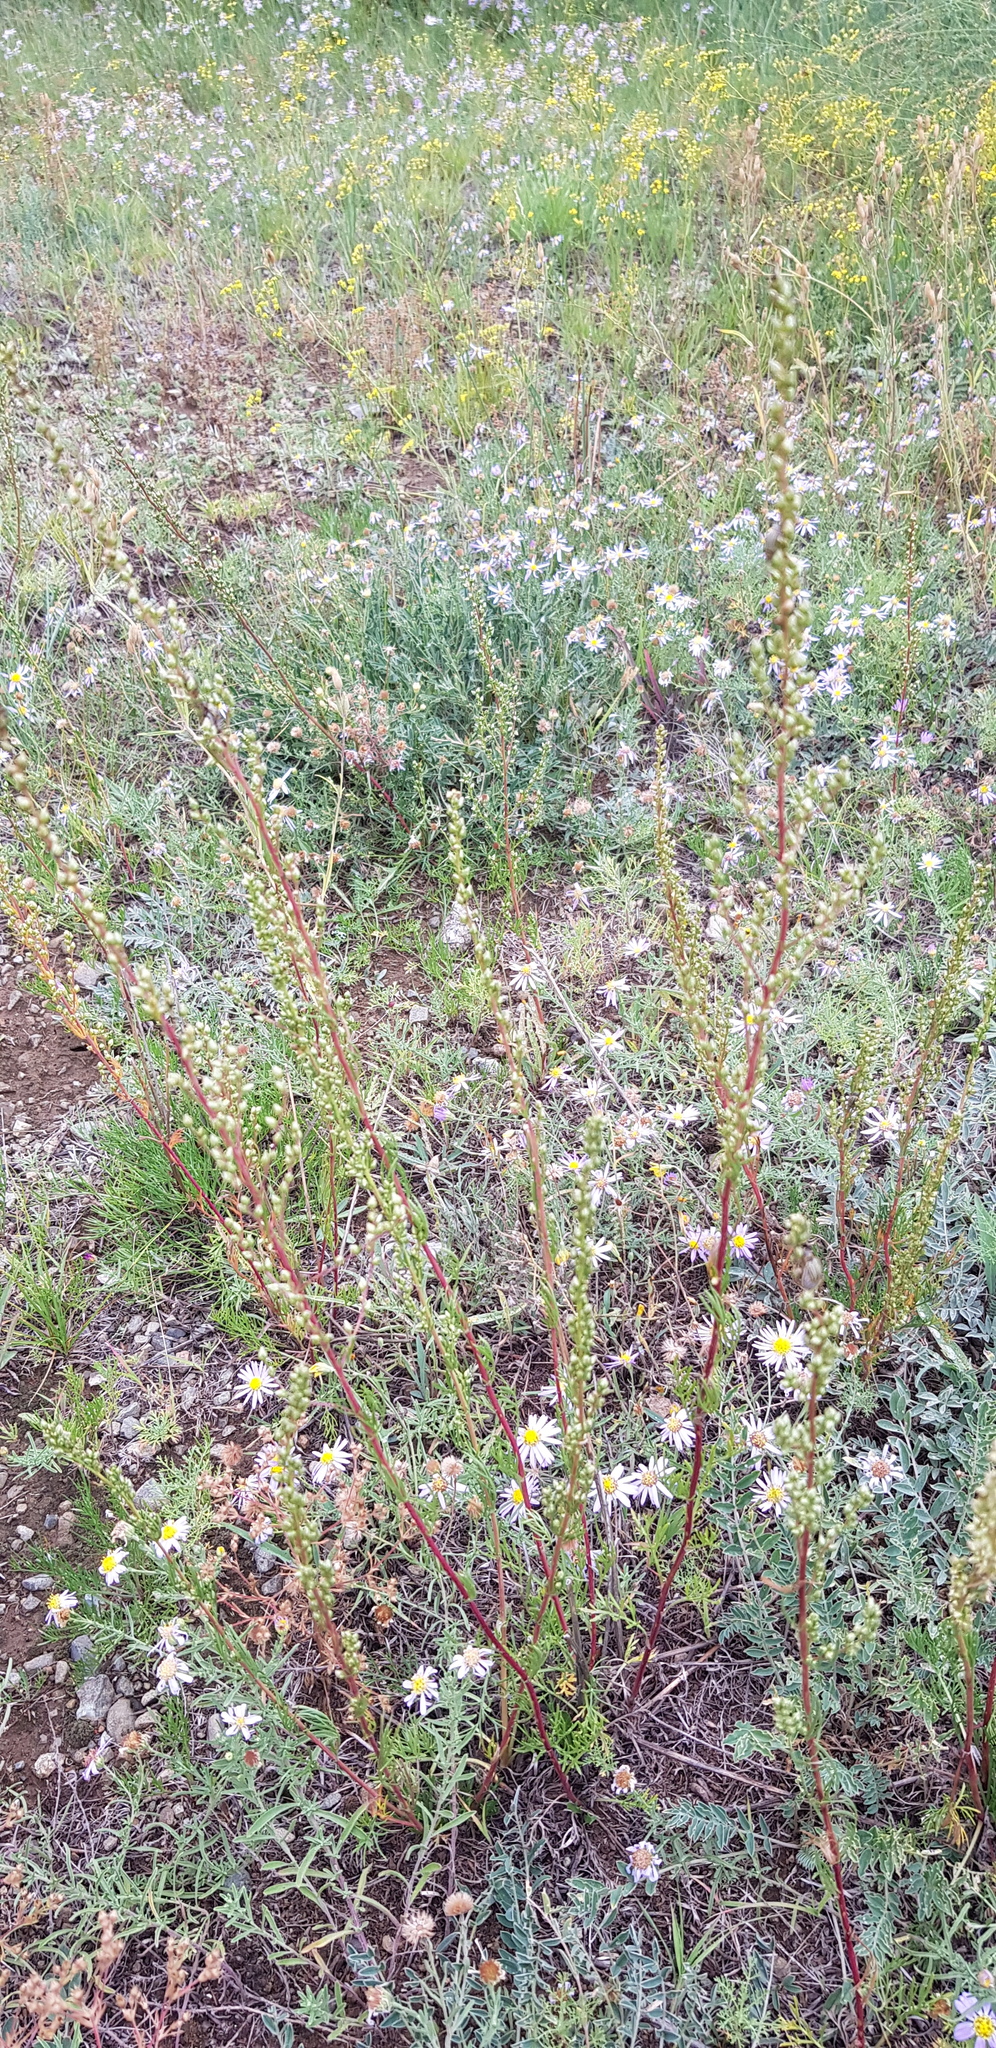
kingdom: Plantae
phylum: Tracheophyta
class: Magnoliopsida
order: Asterales
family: Asteraceae
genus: Artemisia
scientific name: Artemisia scoparia
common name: Redstem wormwood
